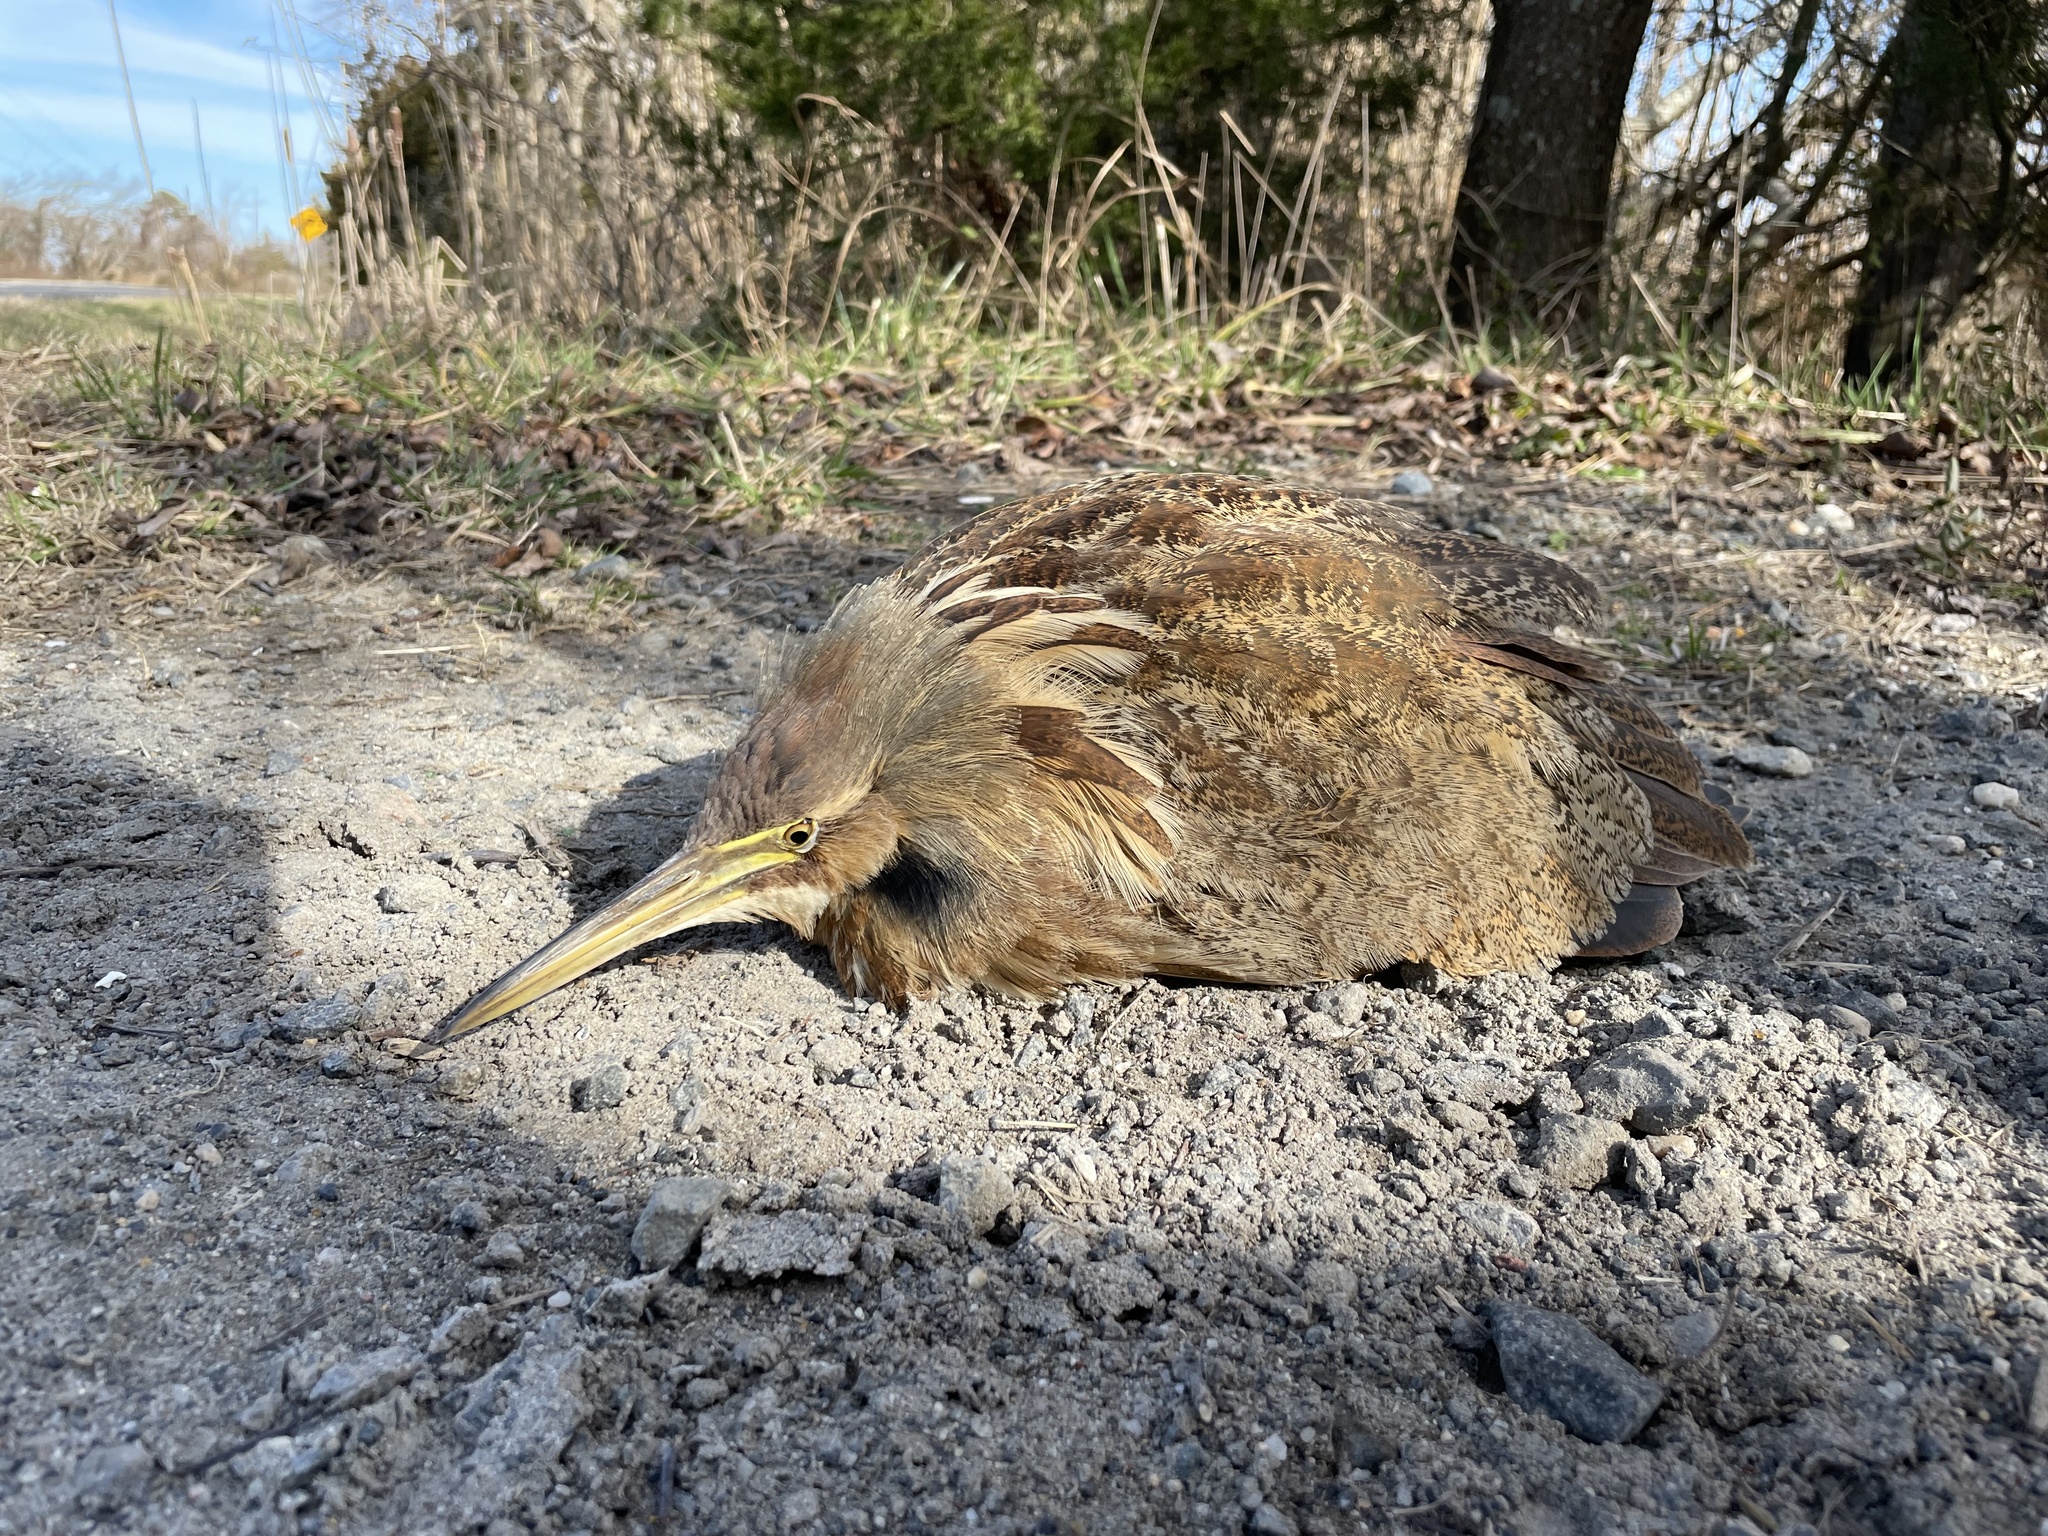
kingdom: Animalia
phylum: Chordata
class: Aves
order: Pelecaniformes
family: Ardeidae
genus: Botaurus
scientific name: Botaurus lentiginosus
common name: American bittern
